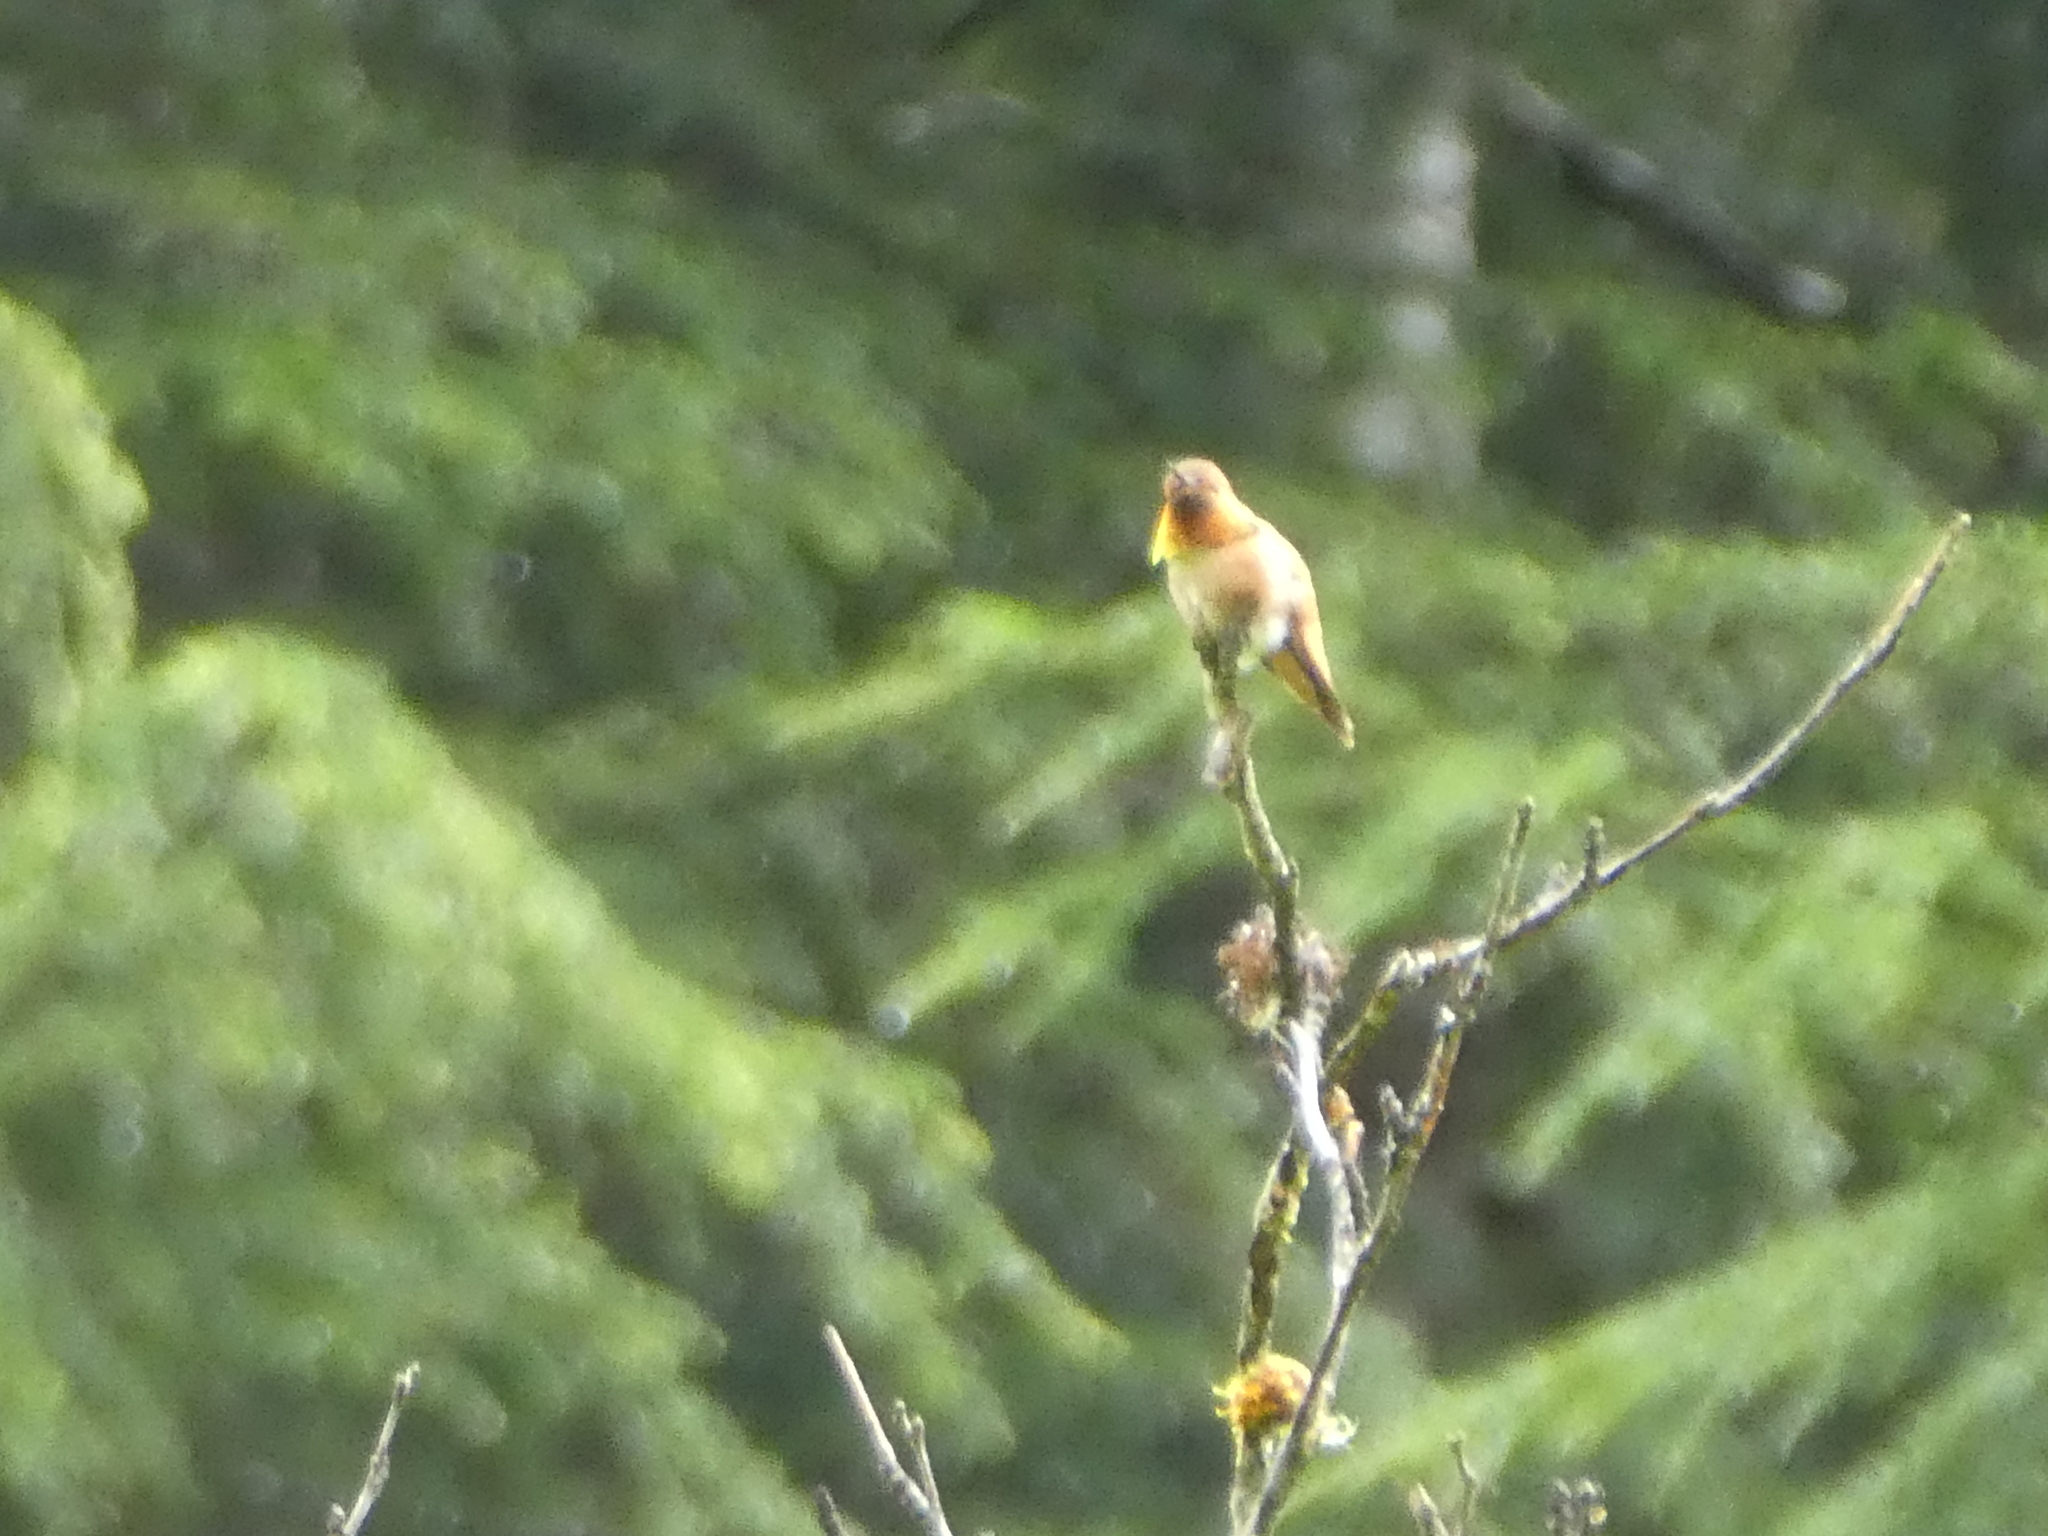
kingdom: Animalia
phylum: Chordata
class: Aves
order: Apodiformes
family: Trochilidae
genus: Selasphorus
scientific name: Selasphorus rufus
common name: Rufous hummingbird
